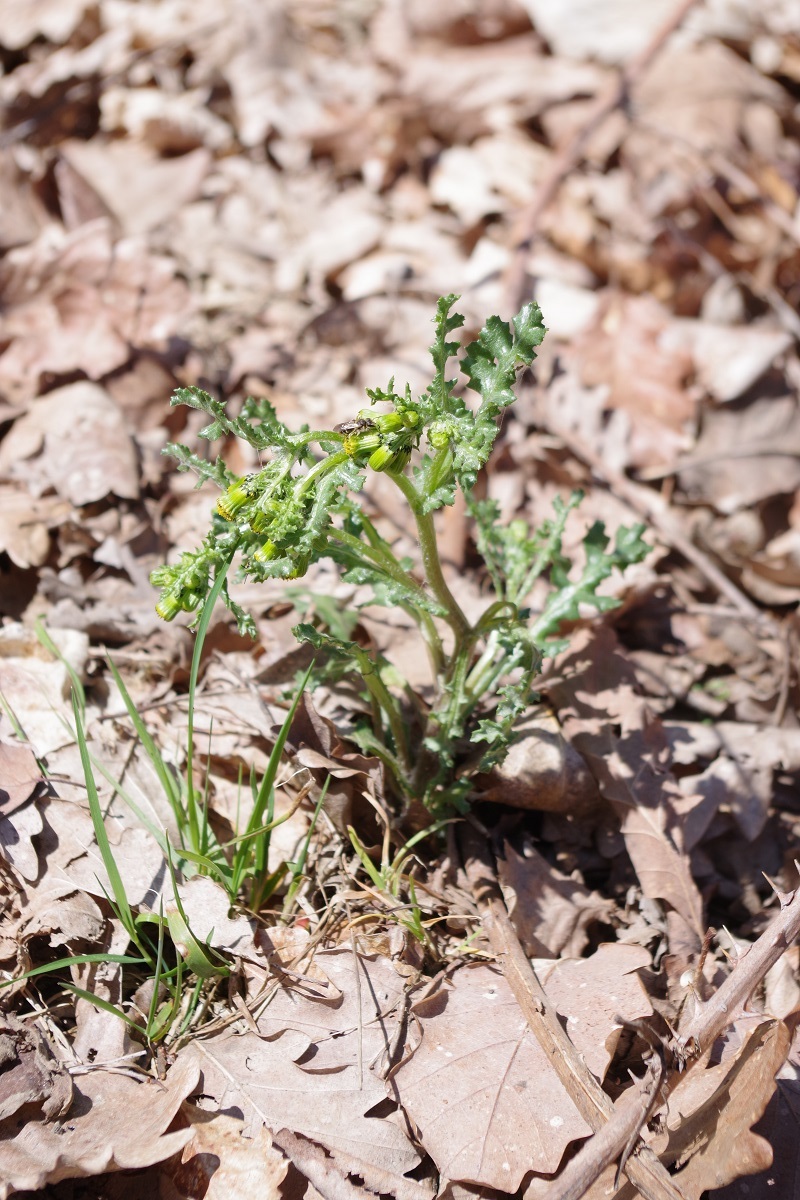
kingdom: Plantae
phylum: Tracheophyta
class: Magnoliopsida
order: Asterales
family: Asteraceae
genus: Senecio
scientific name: Senecio vulgaris
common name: Old-man-in-the-spring
